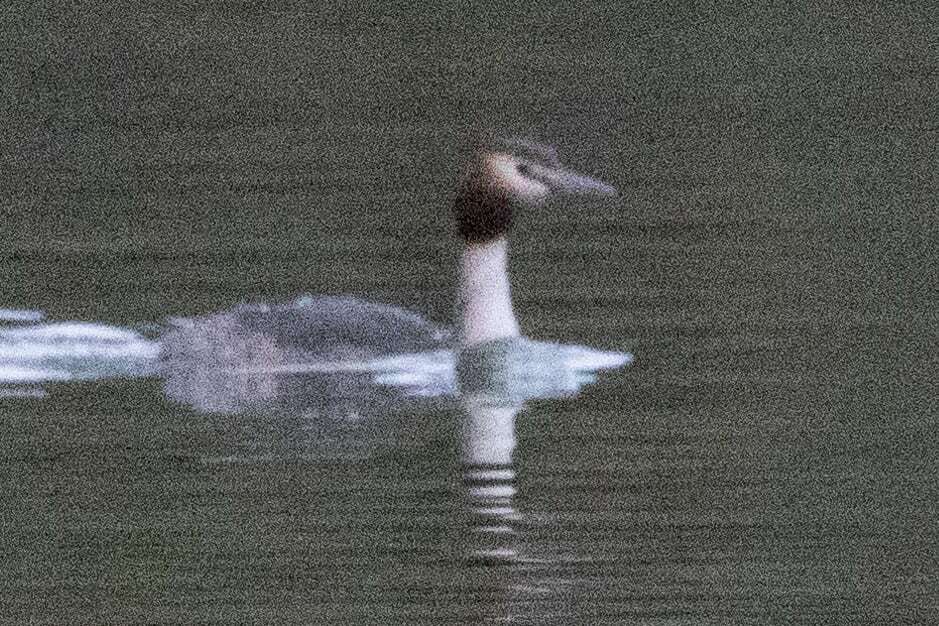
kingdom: Animalia
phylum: Chordata
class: Aves
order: Podicipediformes
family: Podicipedidae
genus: Podiceps
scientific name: Podiceps cristatus
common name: Great crested grebe
